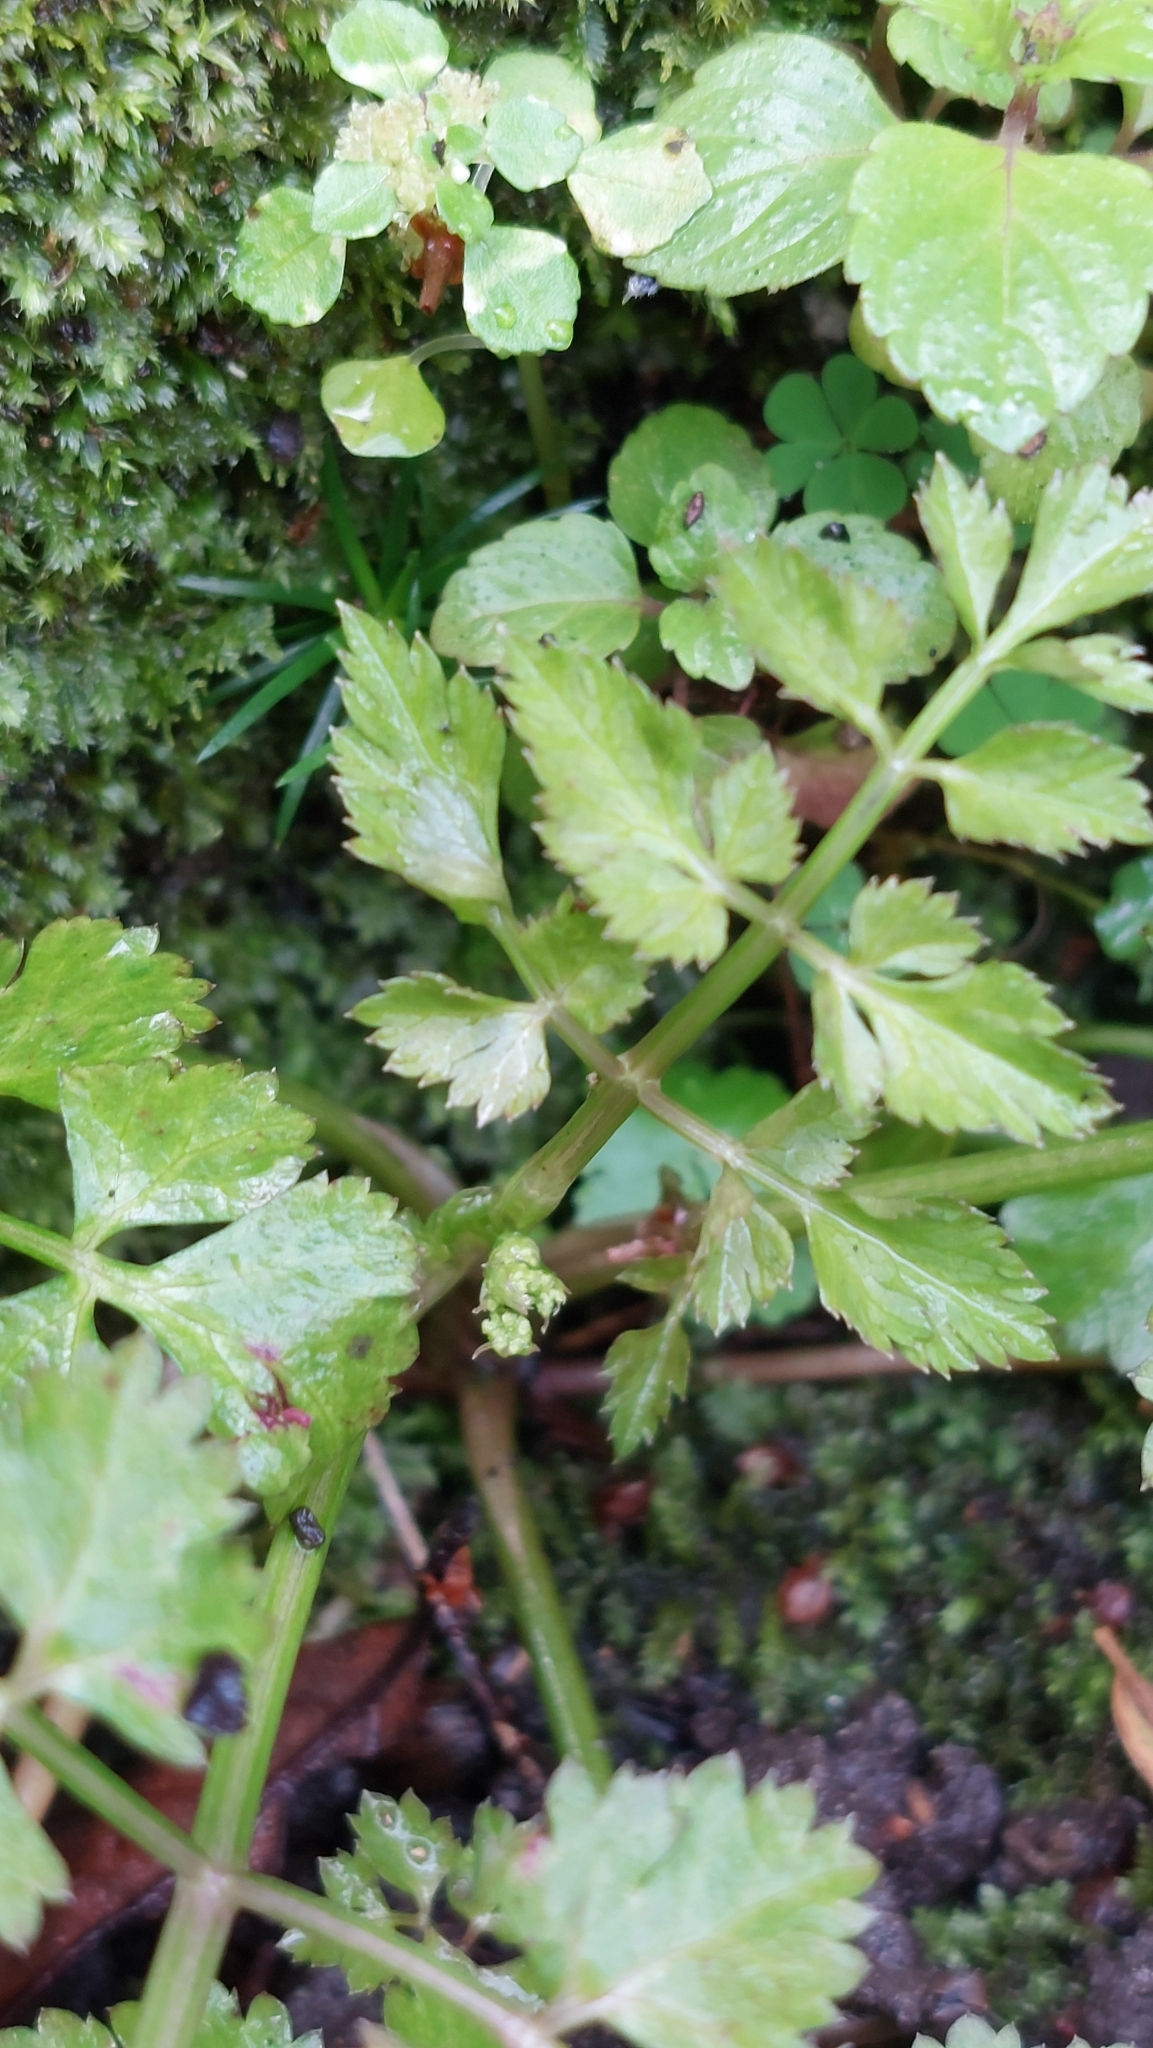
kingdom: Plantae
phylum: Tracheophyta
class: Magnoliopsida
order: Apiales
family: Apiaceae
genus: Oenanthe
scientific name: Oenanthe javanica
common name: Java water-dropwort
